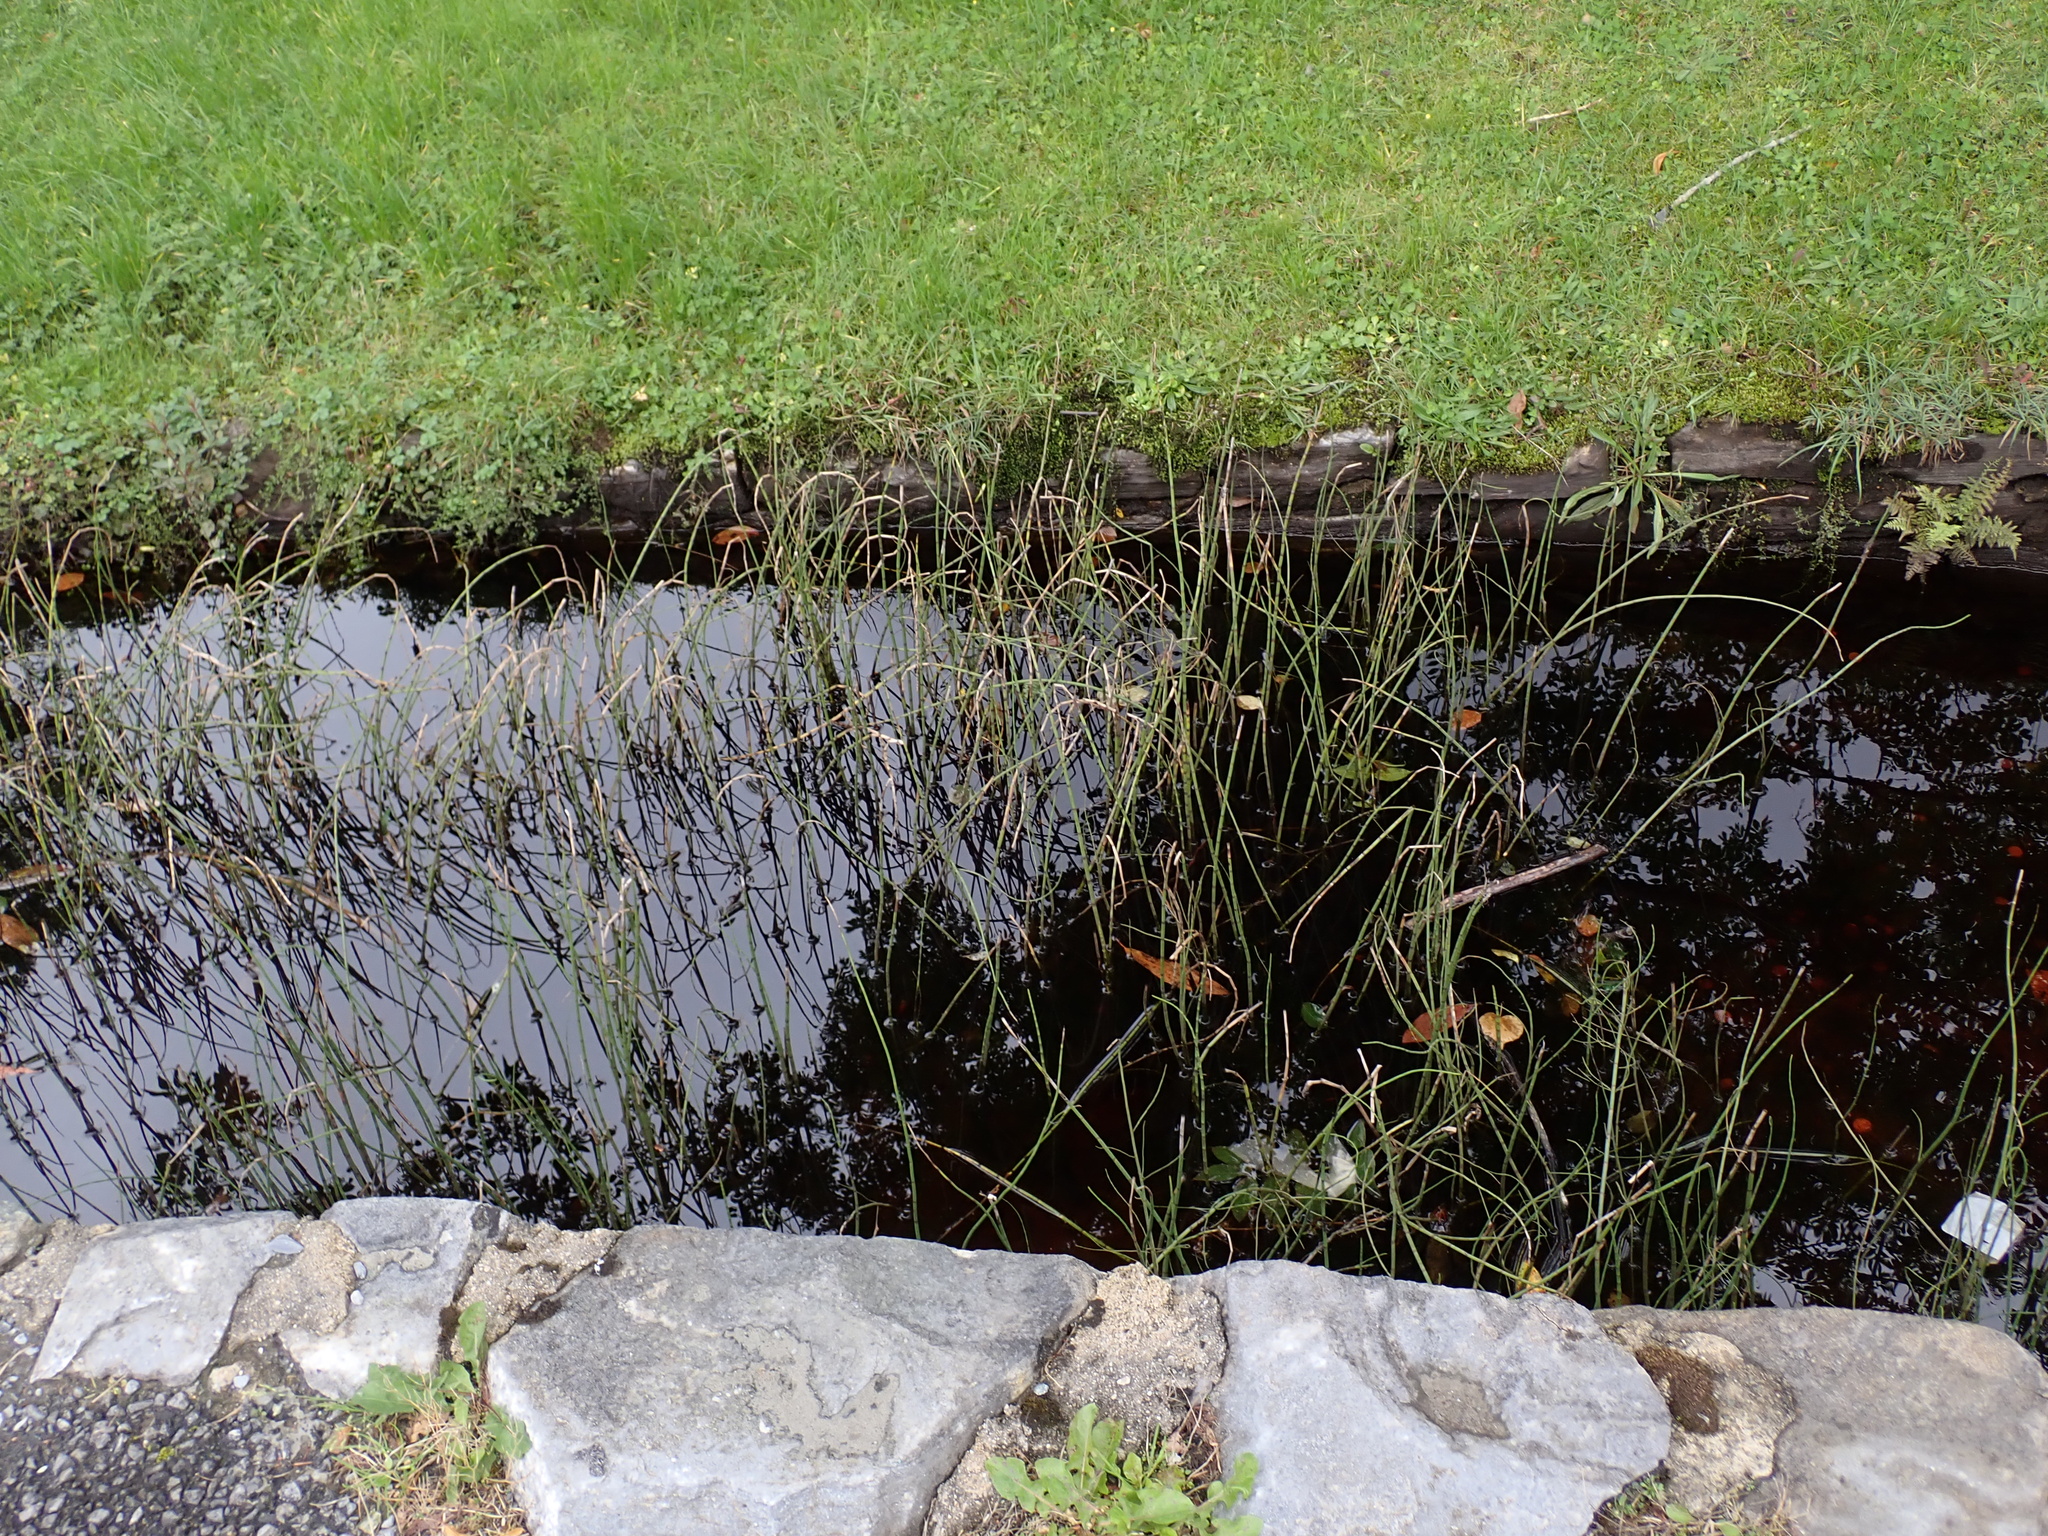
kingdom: Plantae
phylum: Tracheophyta
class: Polypodiopsida
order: Equisetales
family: Equisetaceae
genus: Equisetum
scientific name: Equisetum fluviatile
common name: Water horsetail
